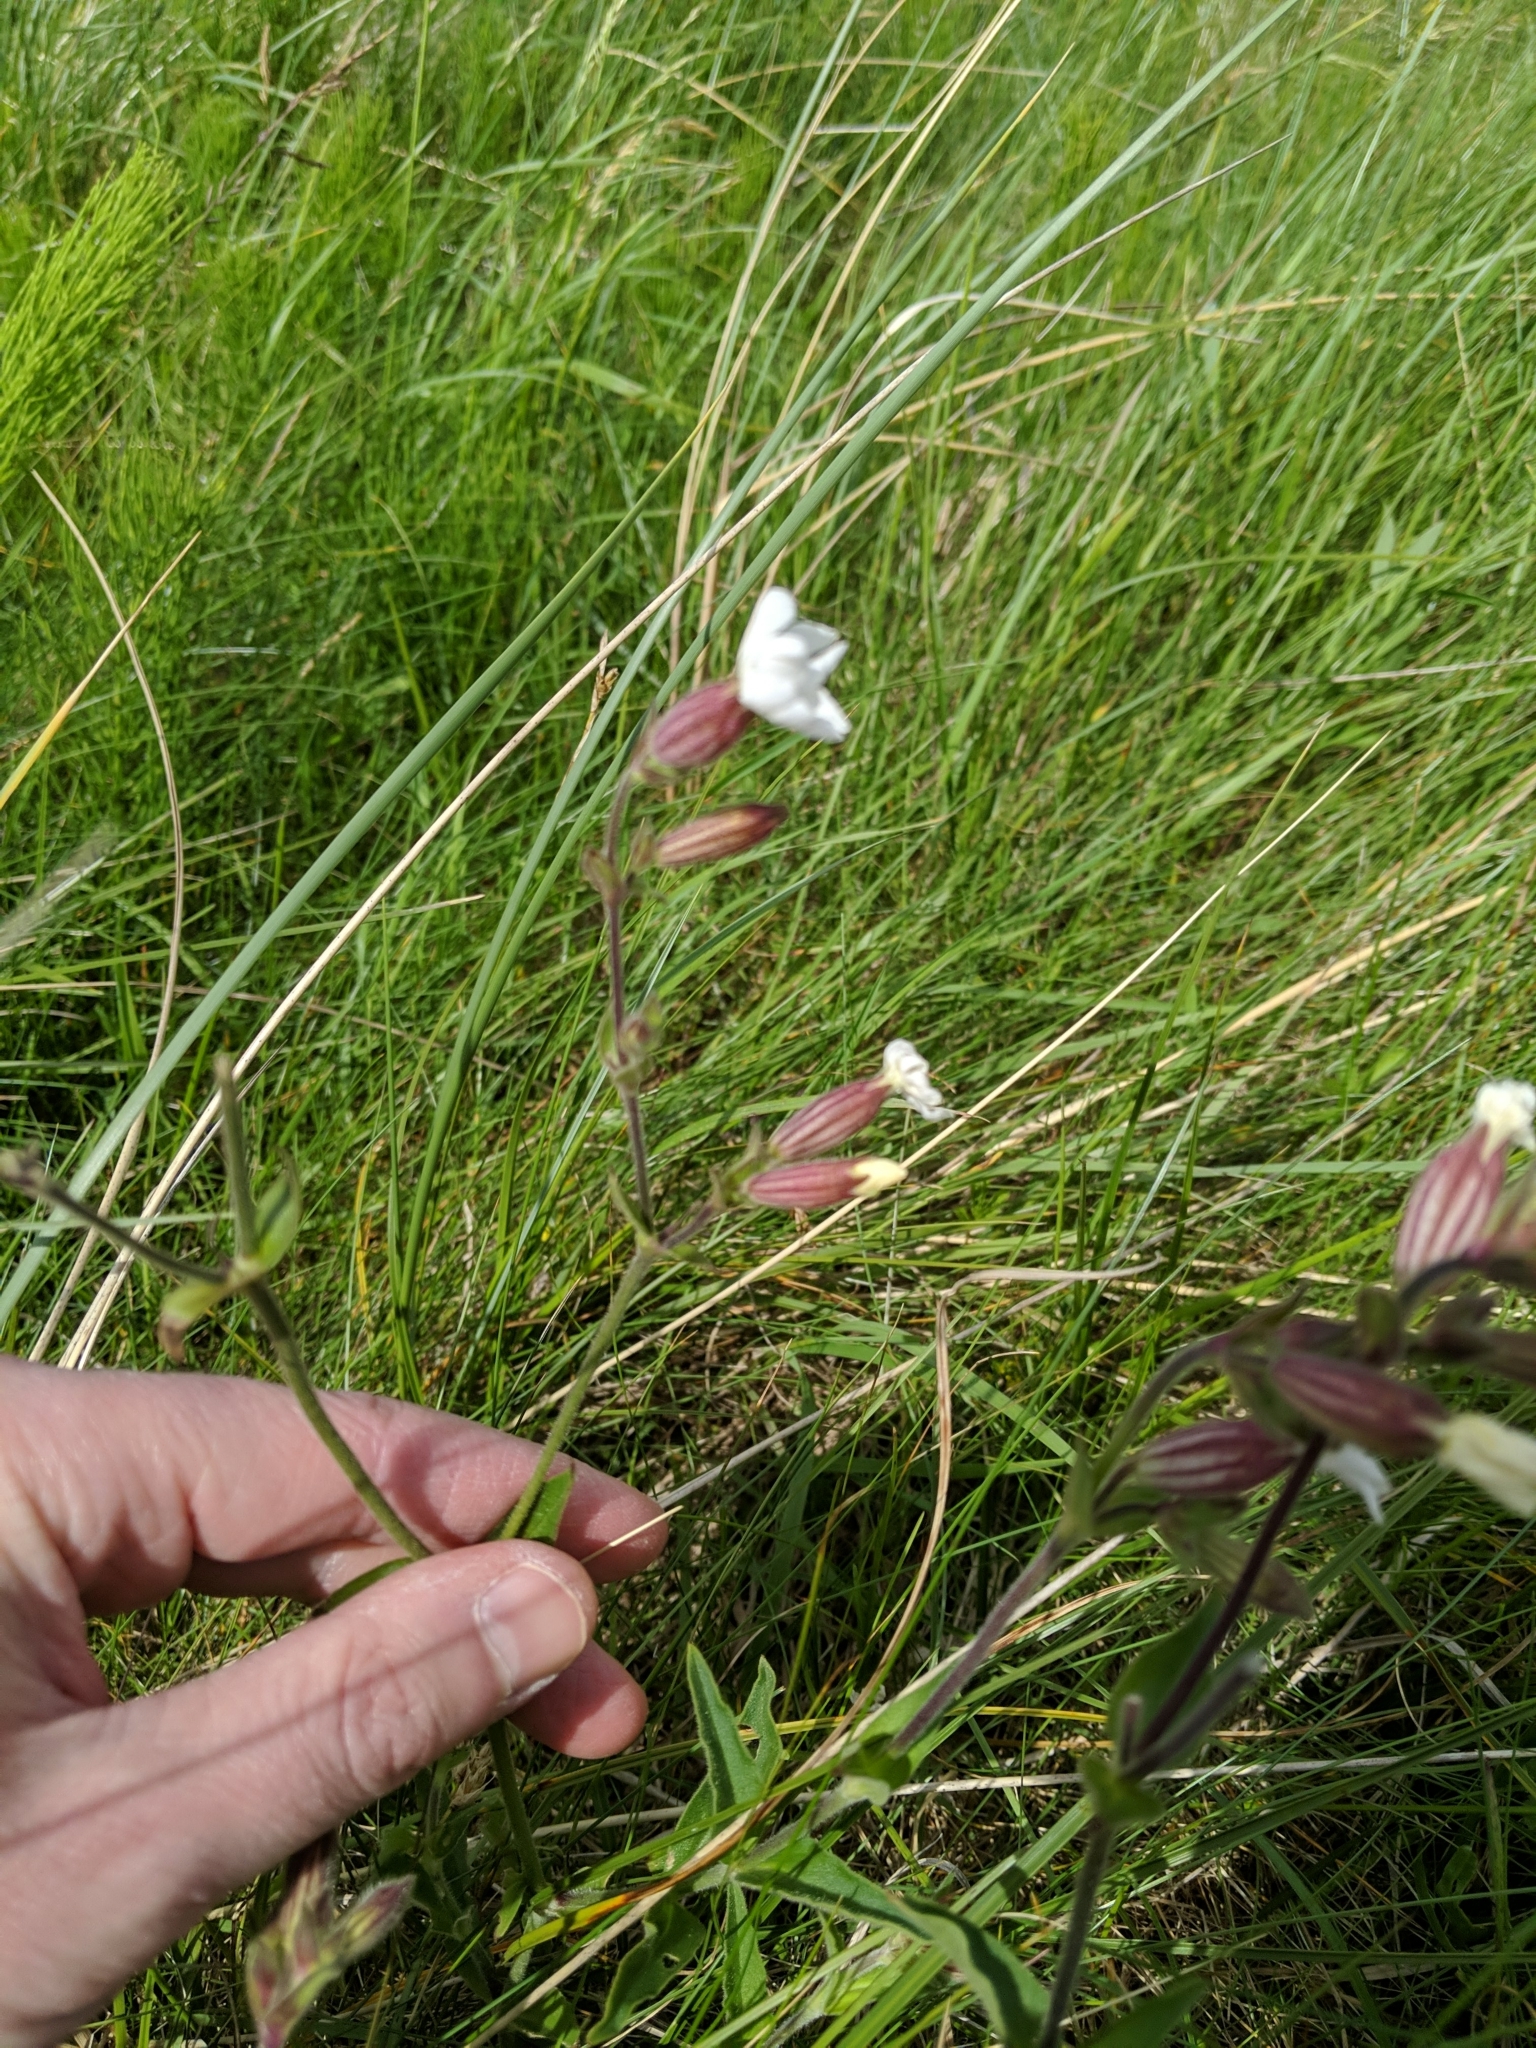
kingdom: Plantae
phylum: Tracheophyta
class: Magnoliopsida
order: Caryophyllales
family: Caryophyllaceae
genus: Silene
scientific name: Silene latifolia
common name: White campion
